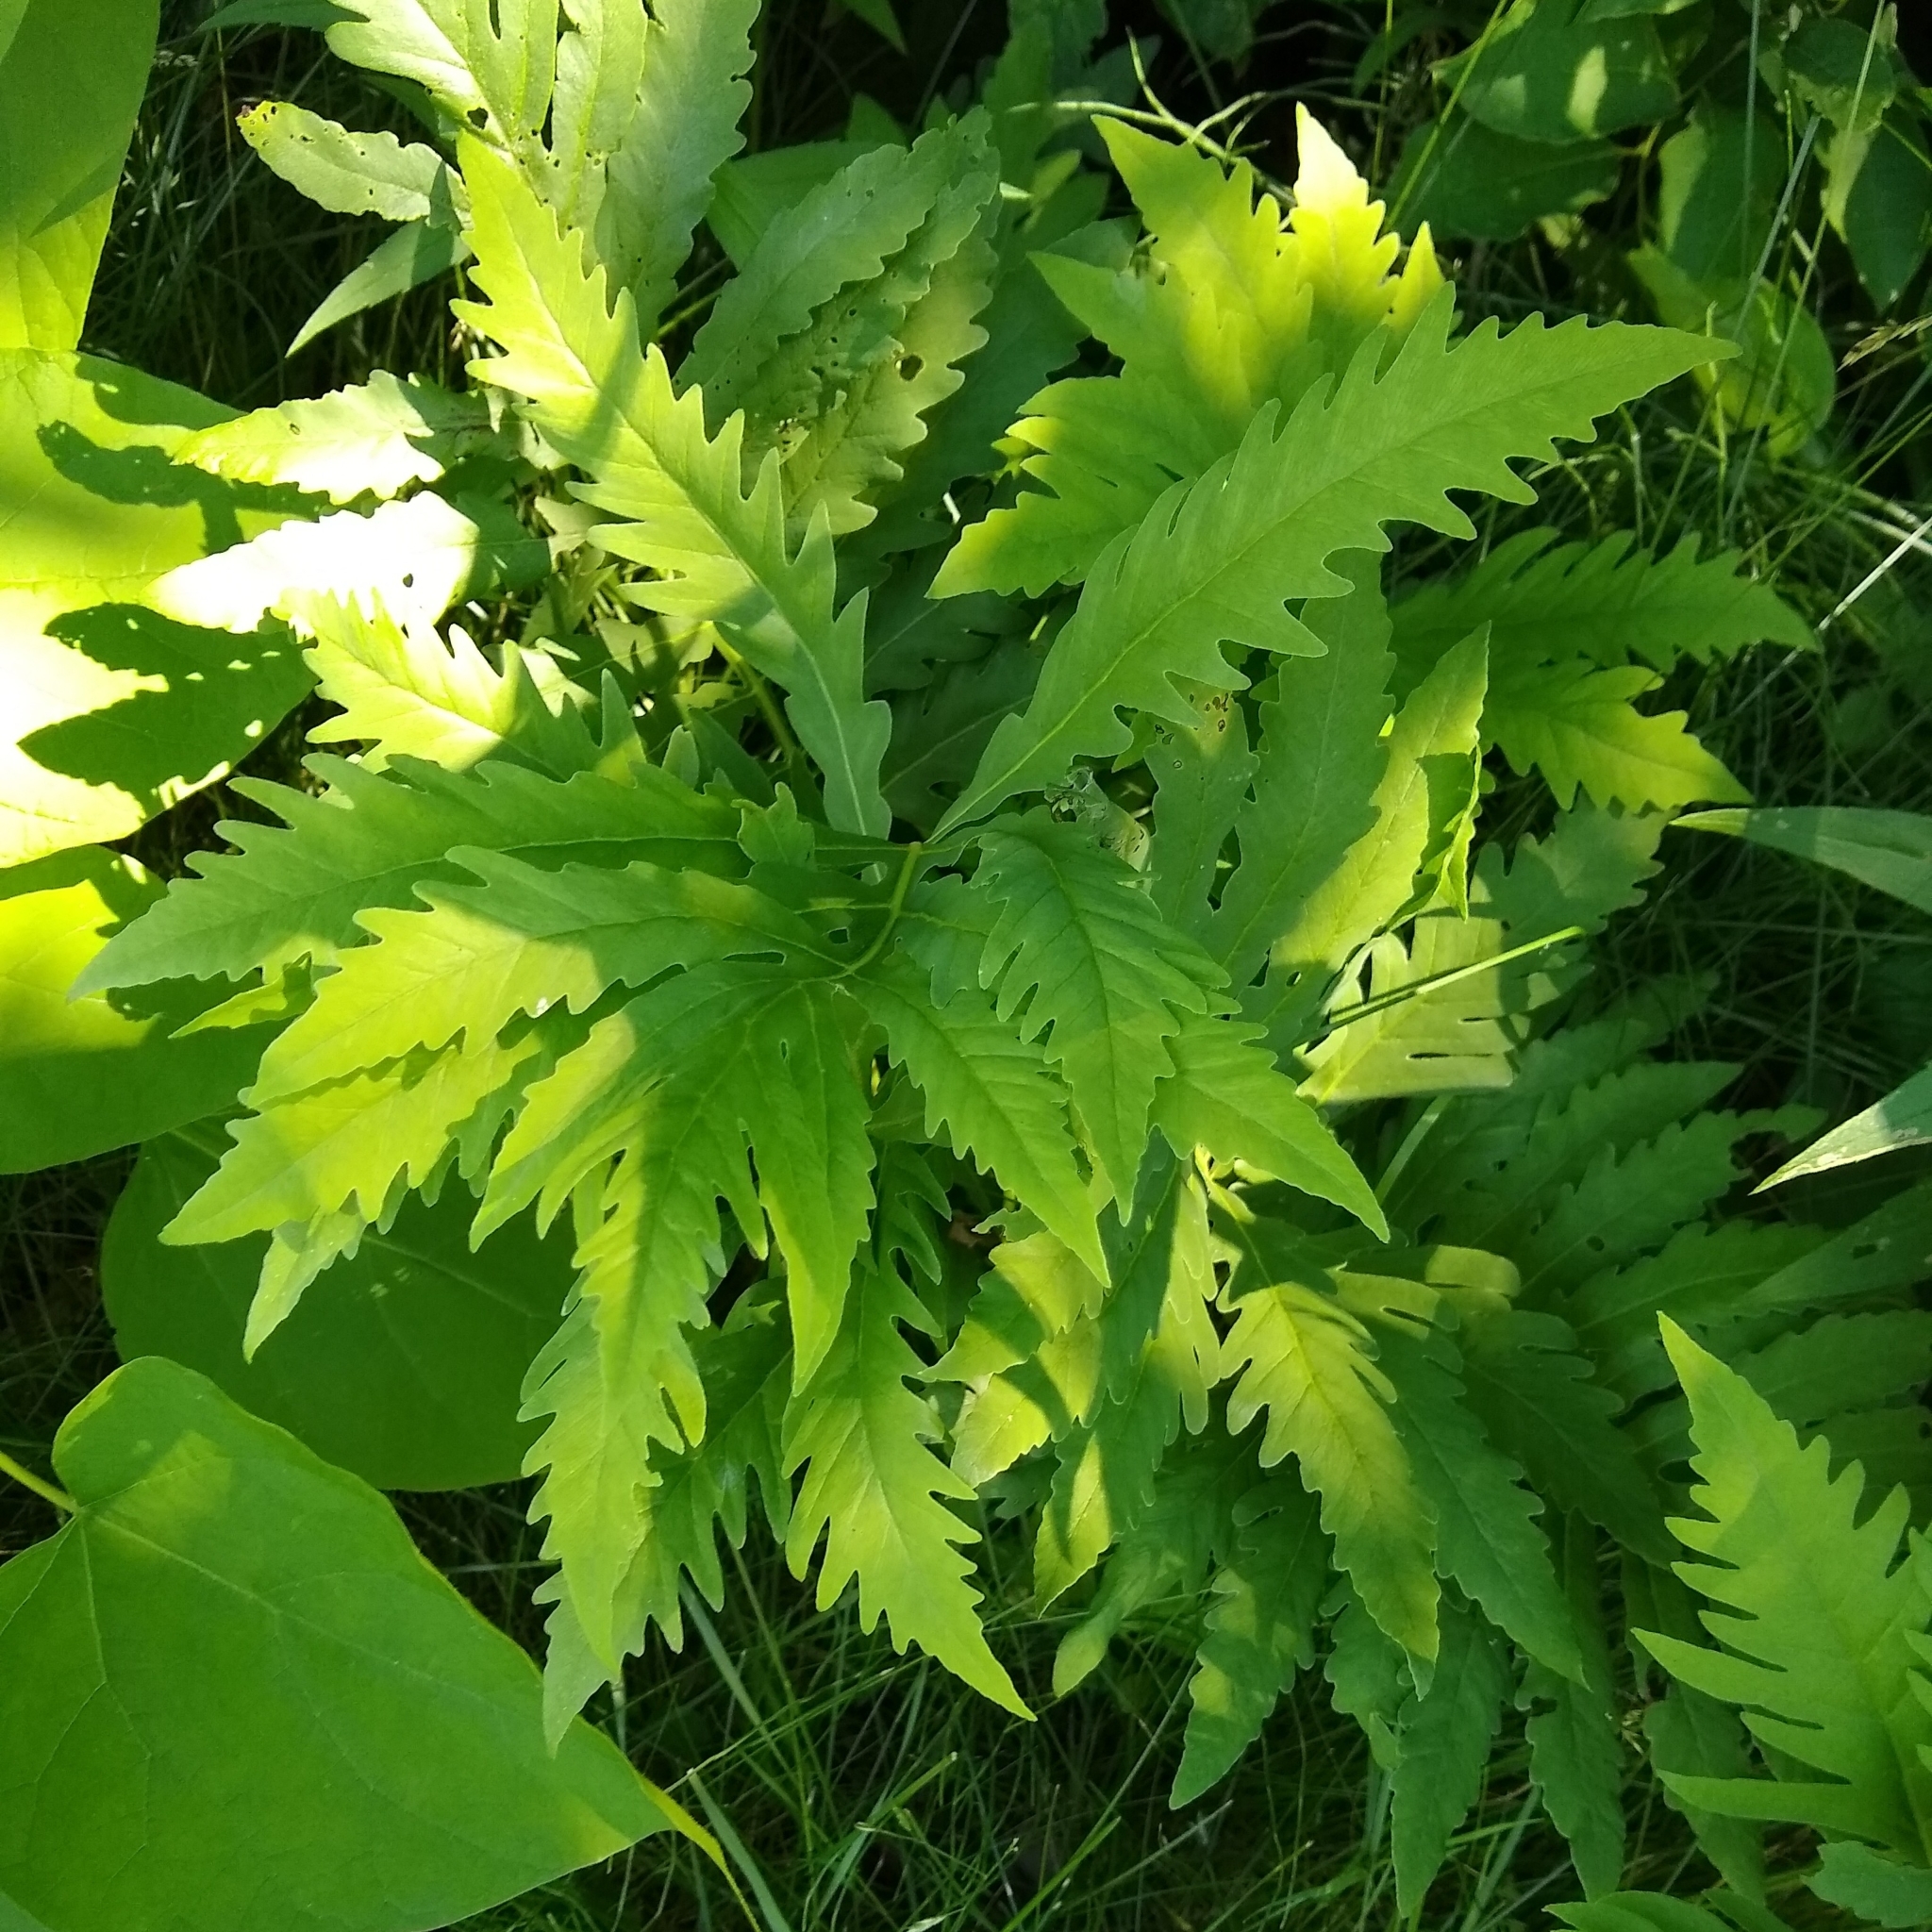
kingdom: Plantae
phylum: Tracheophyta
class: Polypodiopsida
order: Polypodiales
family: Onocleaceae
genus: Onoclea
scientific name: Onoclea sensibilis
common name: Sensitive fern
